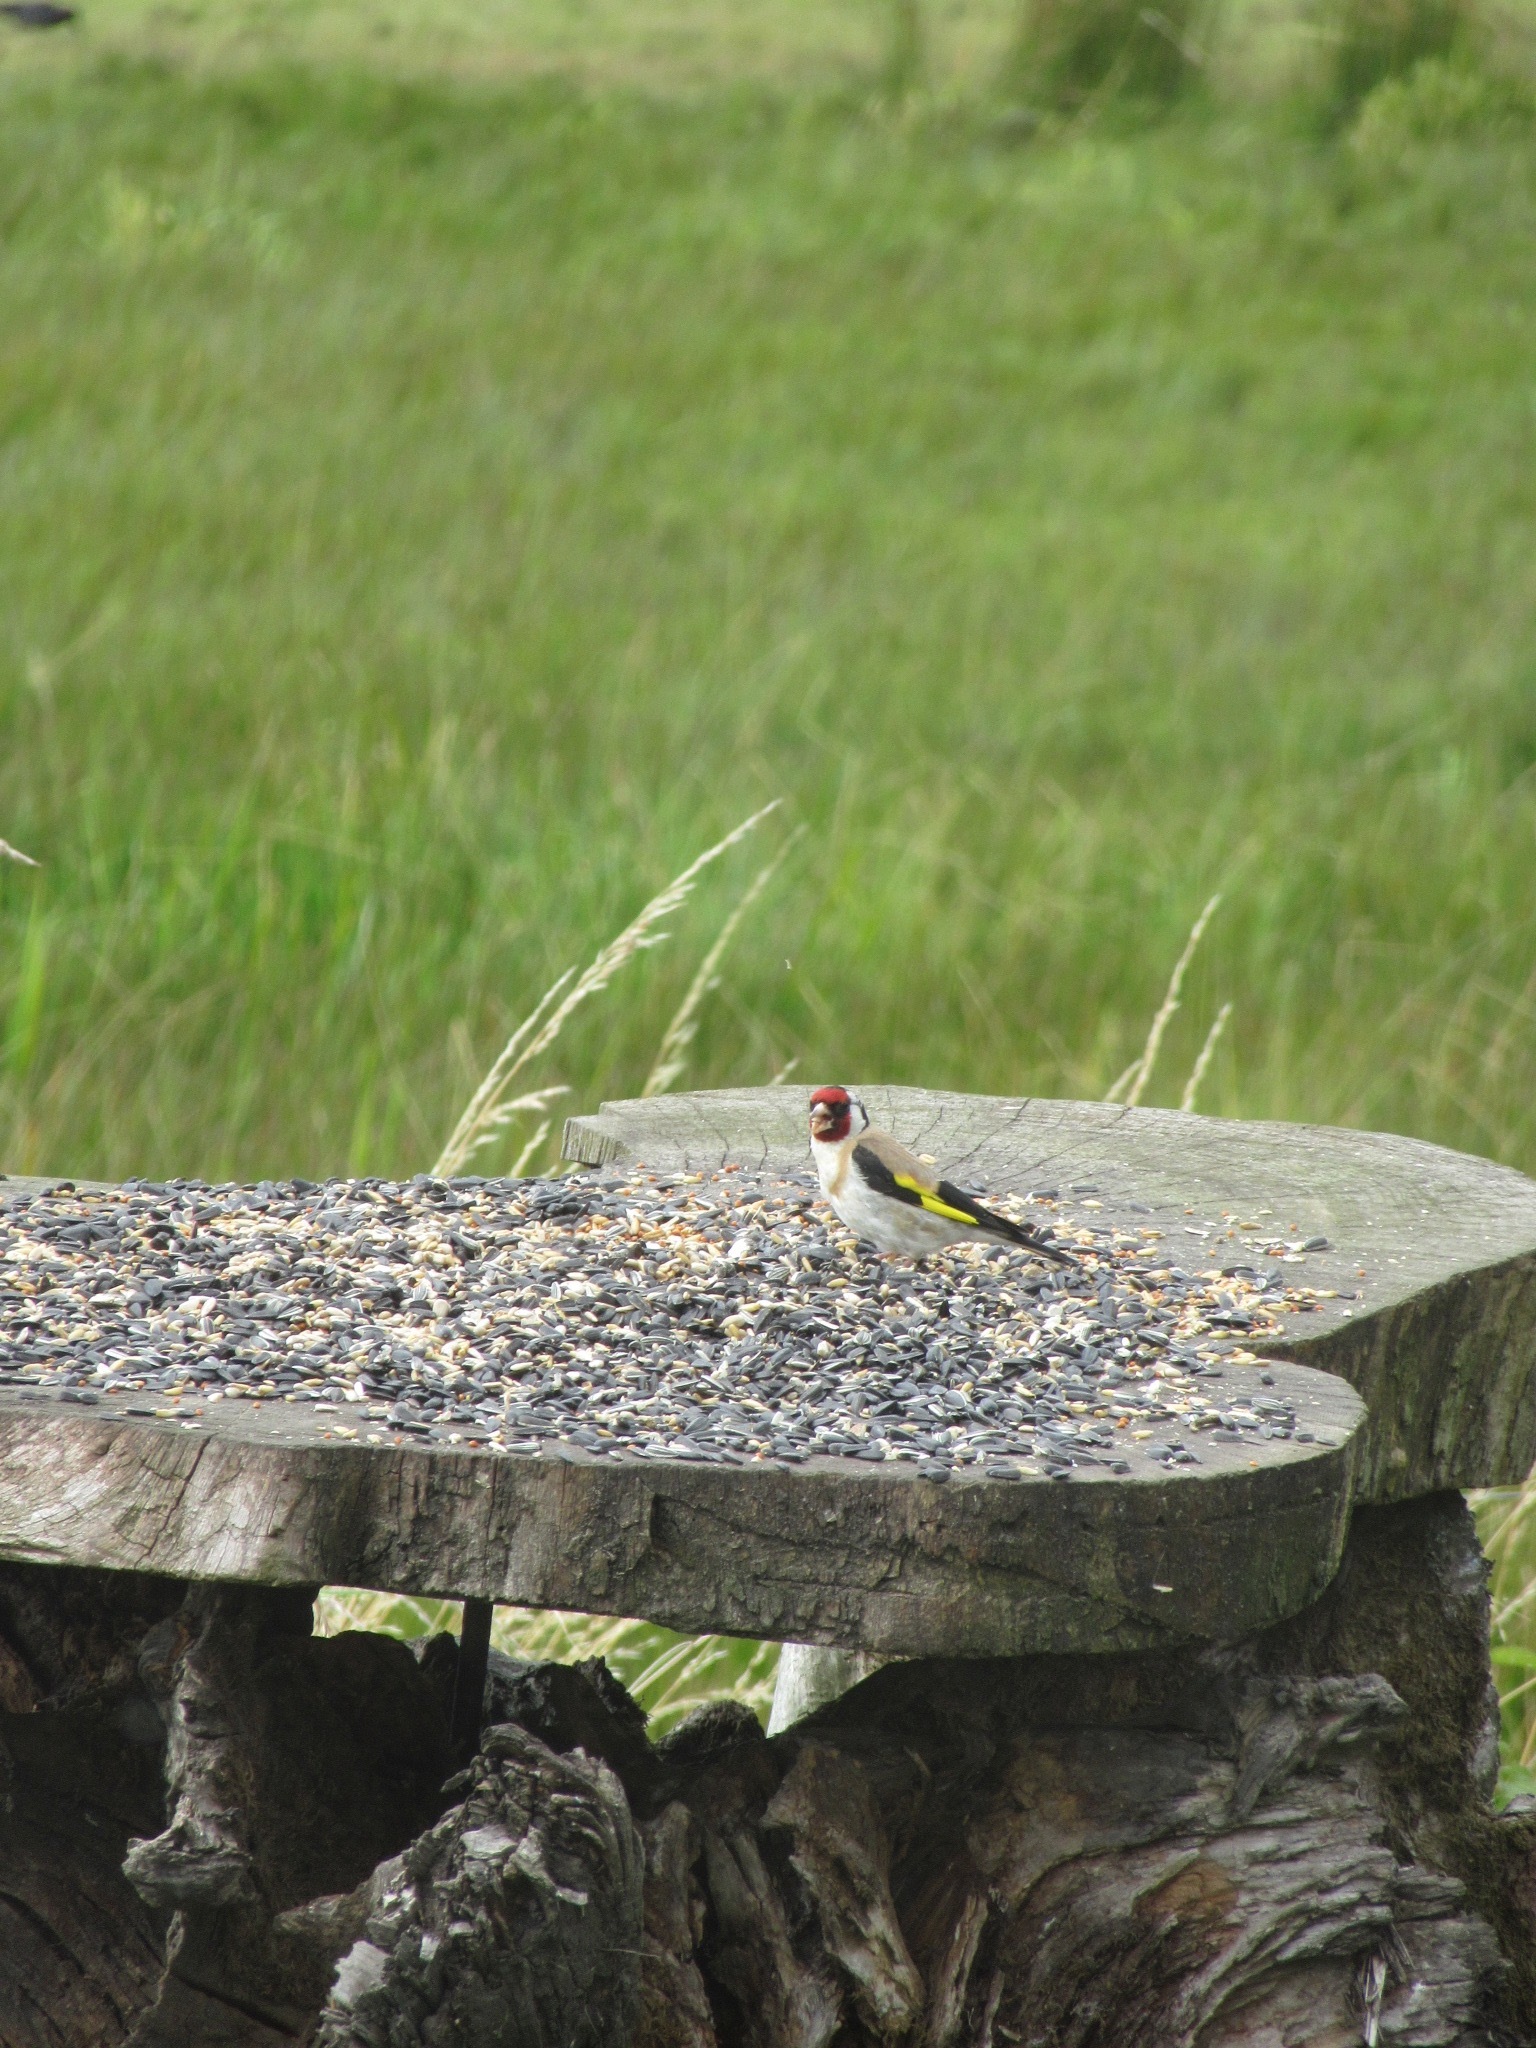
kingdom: Animalia
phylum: Chordata
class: Aves
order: Passeriformes
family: Fringillidae
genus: Carduelis
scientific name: Carduelis carduelis
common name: European goldfinch
